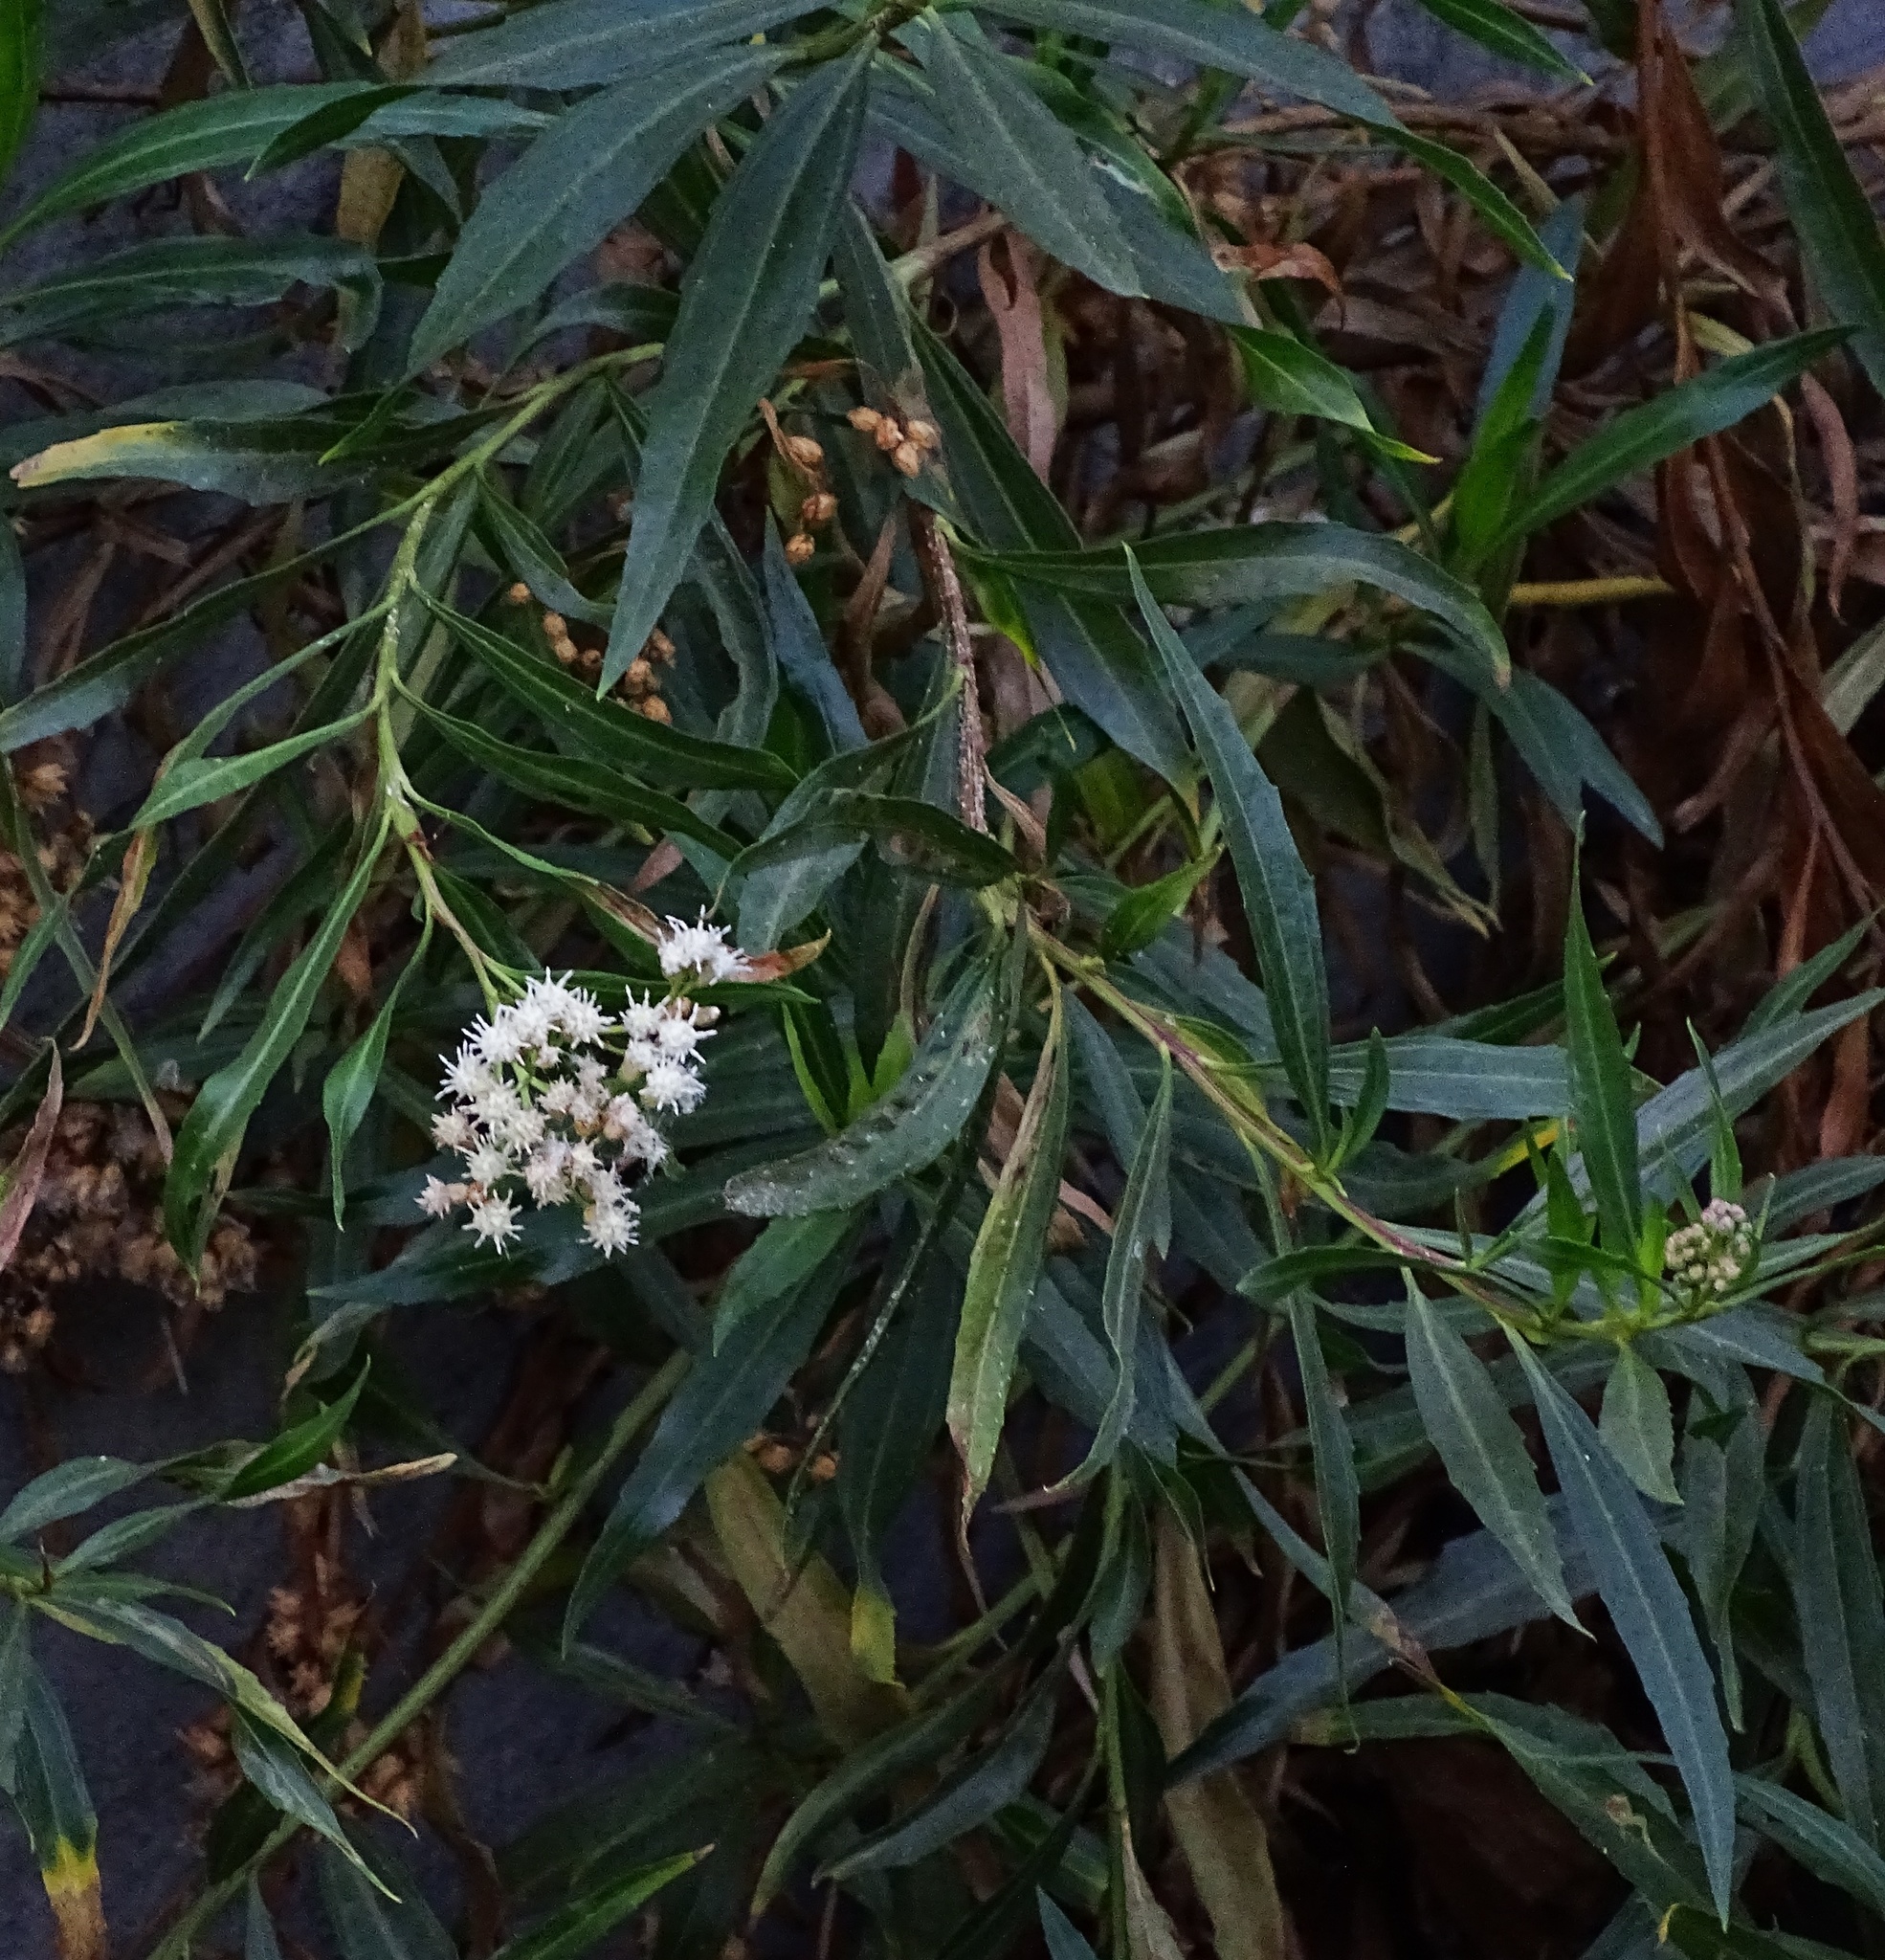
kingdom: Plantae
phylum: Tracheophyta
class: Magnoliopsida
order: Asterales
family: Asteraceae
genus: Baccharis
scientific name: Baccharis salicifolia
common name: Sticky baccharis
